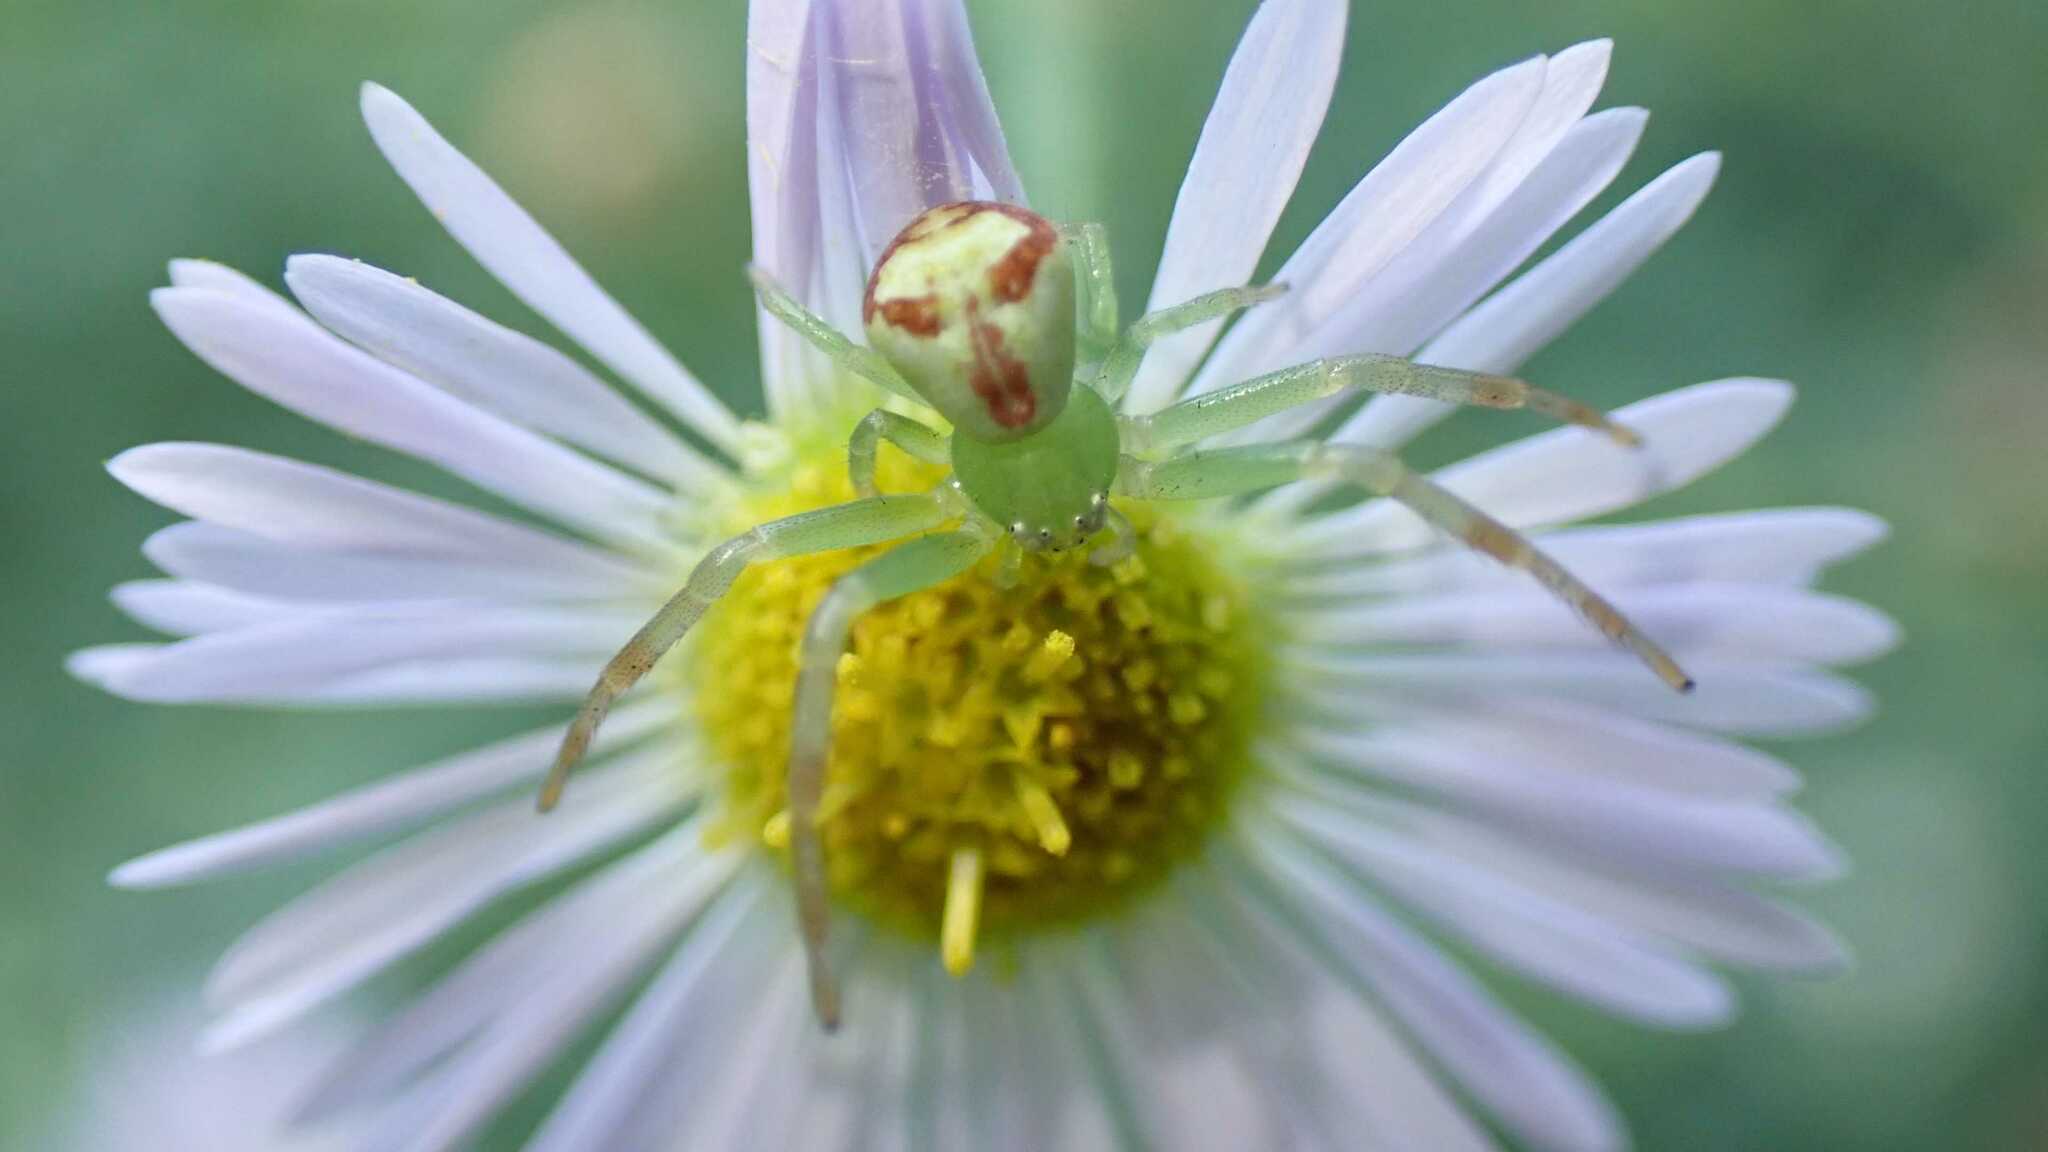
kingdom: Animalia
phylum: Arthropoda
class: Arachnida
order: Araneae
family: Thomisidae
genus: Ebrechtella
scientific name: Ebrechtella tricuspidata
